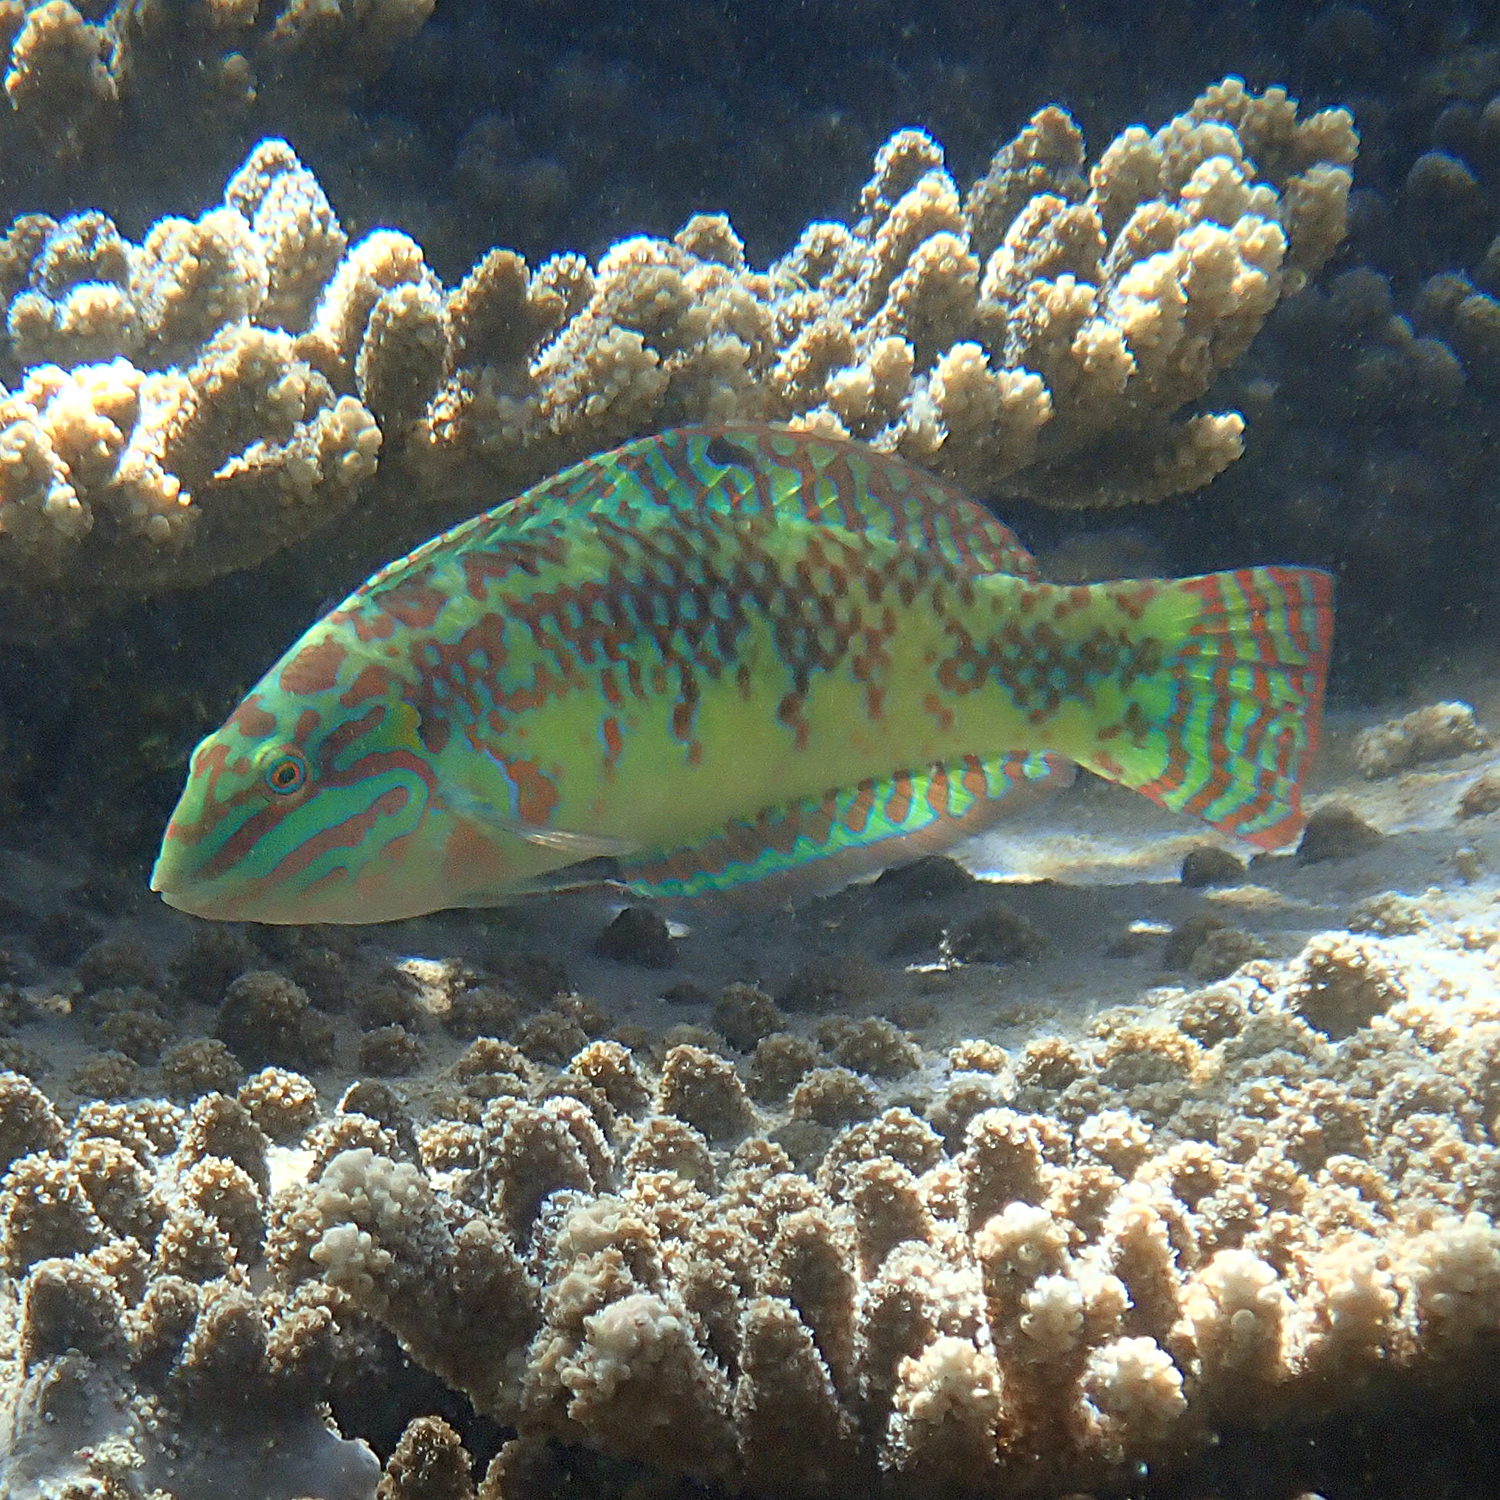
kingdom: Animalia
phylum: Chordata
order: Perciformes
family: Labridae
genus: Halichoeres
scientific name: Halichoeres margaritaceus
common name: Pink-belly wrasse
